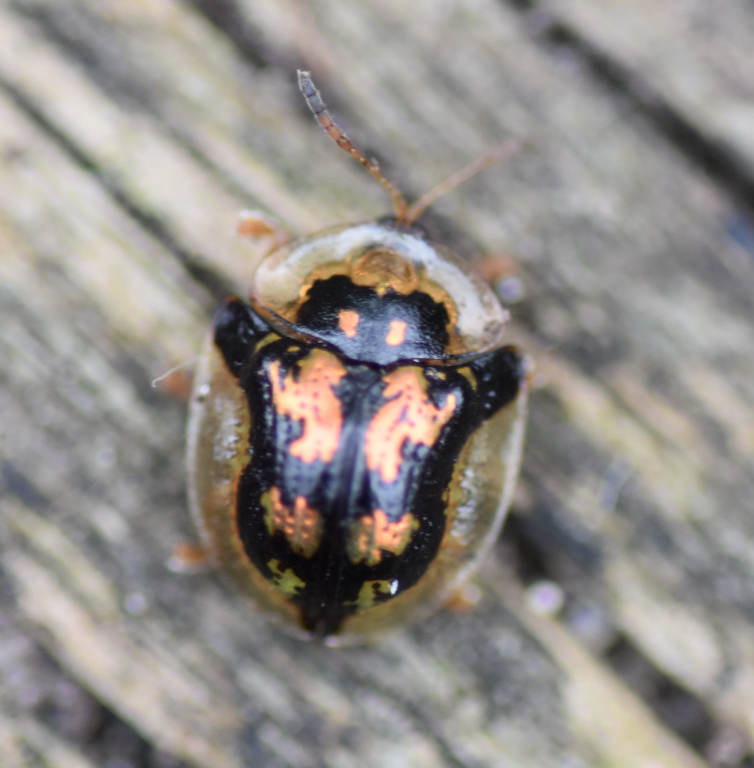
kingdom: Animalia
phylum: Arthropoda
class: Insecta
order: Coleoptera
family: Chrysomelidae
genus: Deloyala
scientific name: Deloyala guttata
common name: Mottled tortoise beetle
